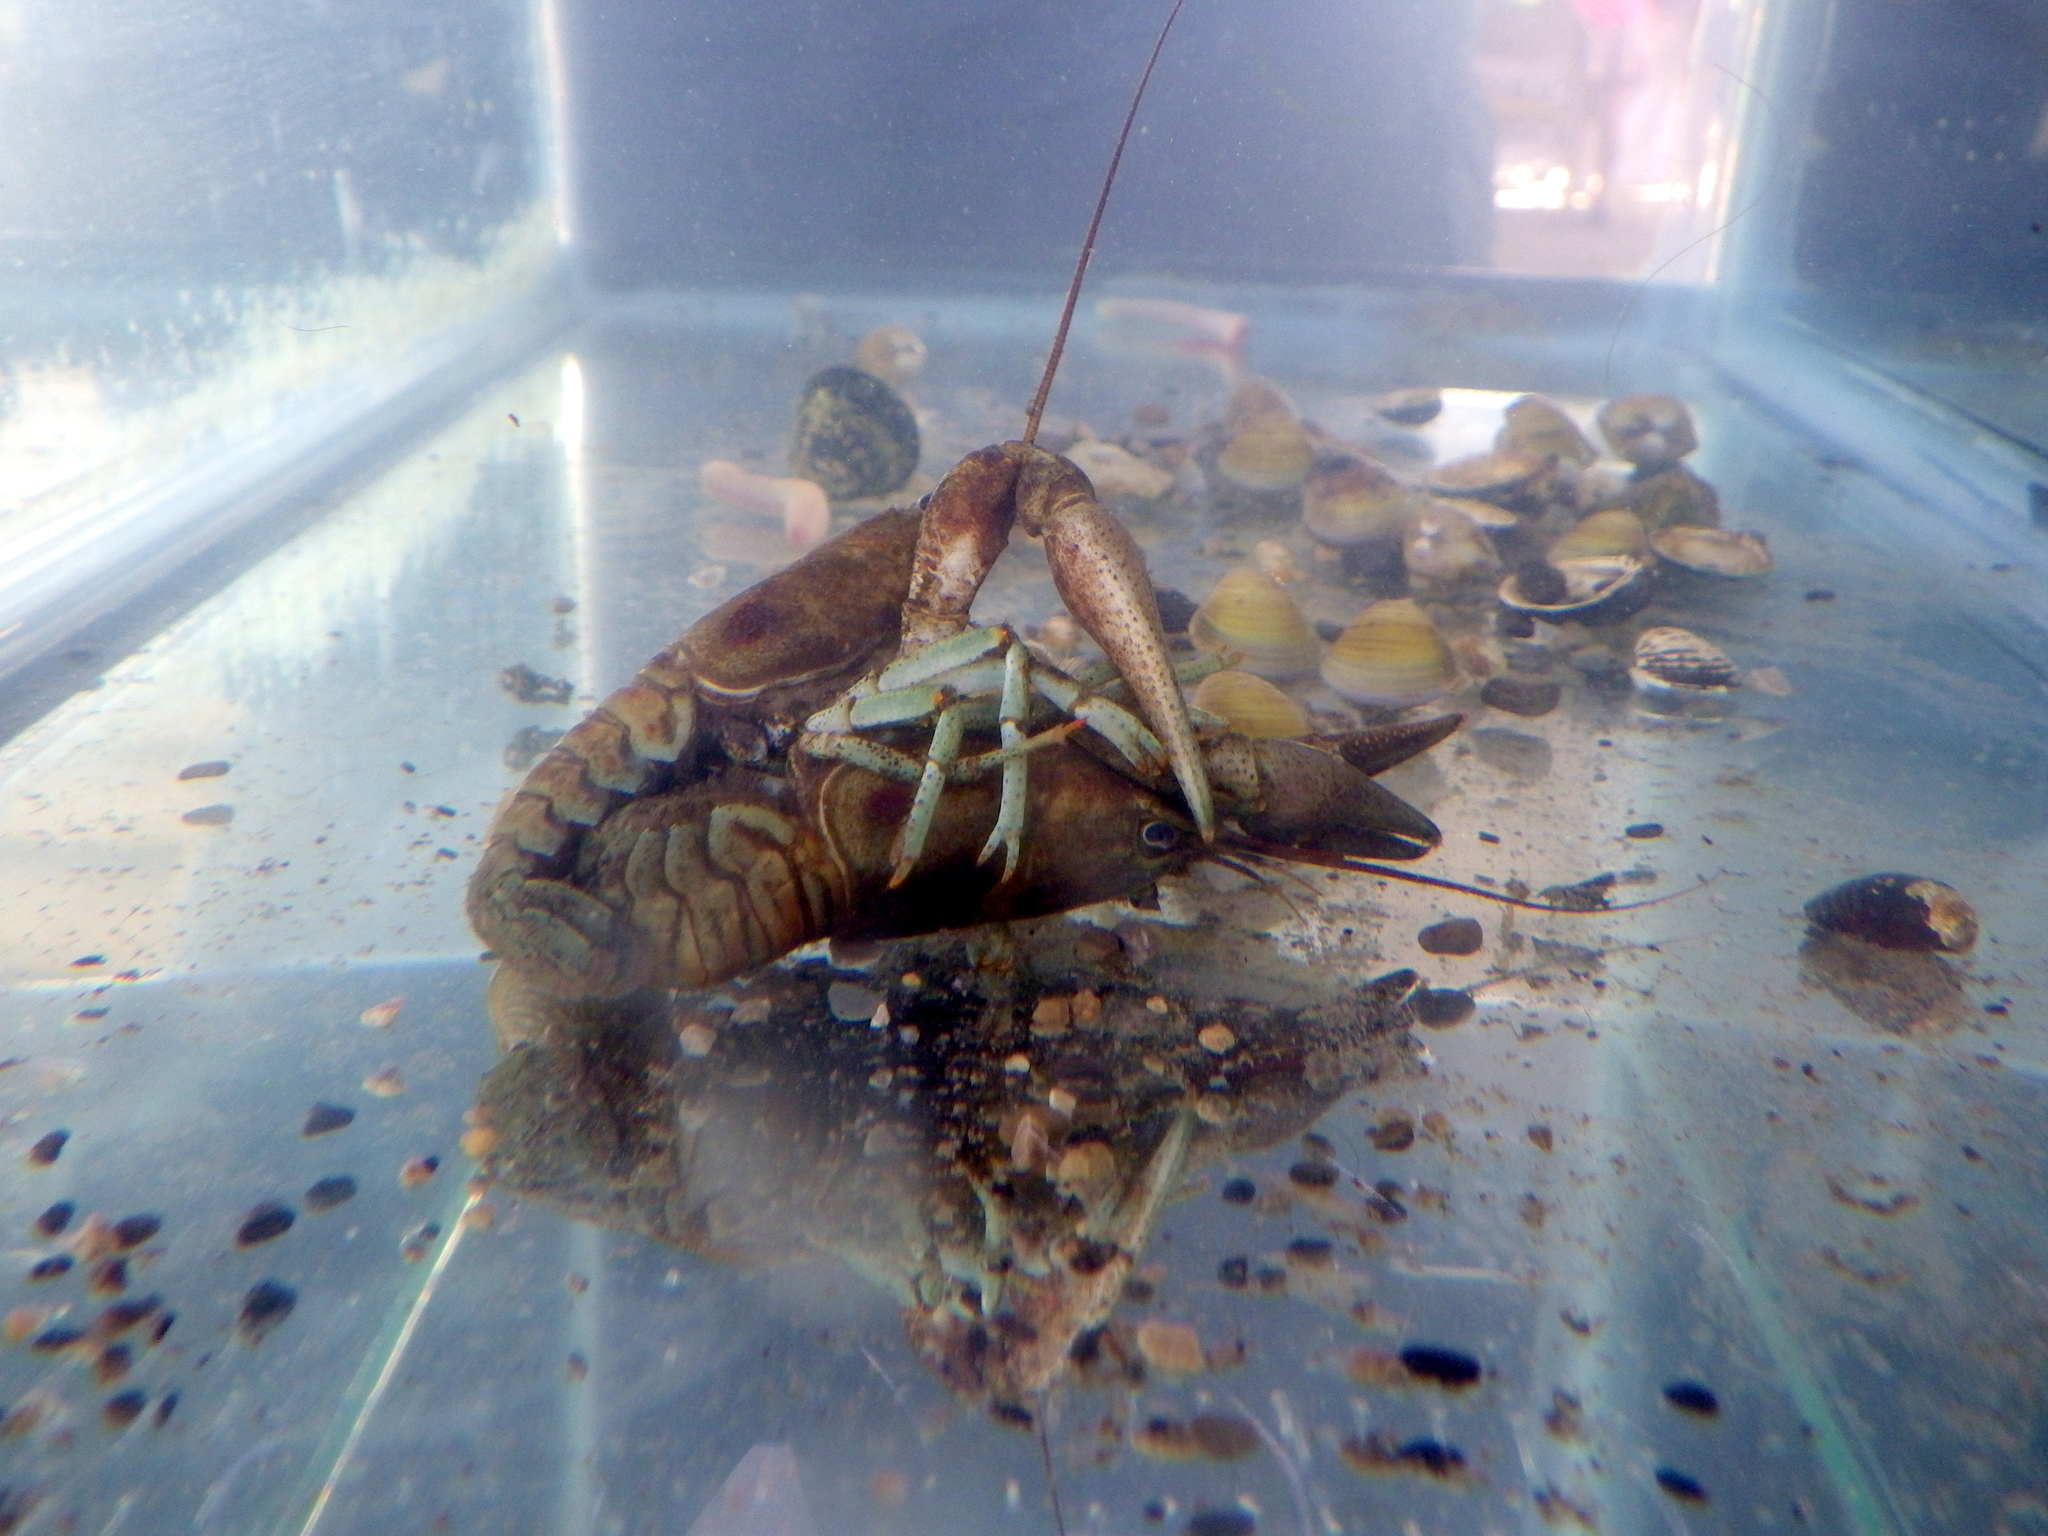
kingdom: Animalia
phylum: Arthropoda
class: Malacostraca
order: Decapoda
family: Cambaridae
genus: Faxonius
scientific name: Faxonius rusticus
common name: Rusty crayfish
